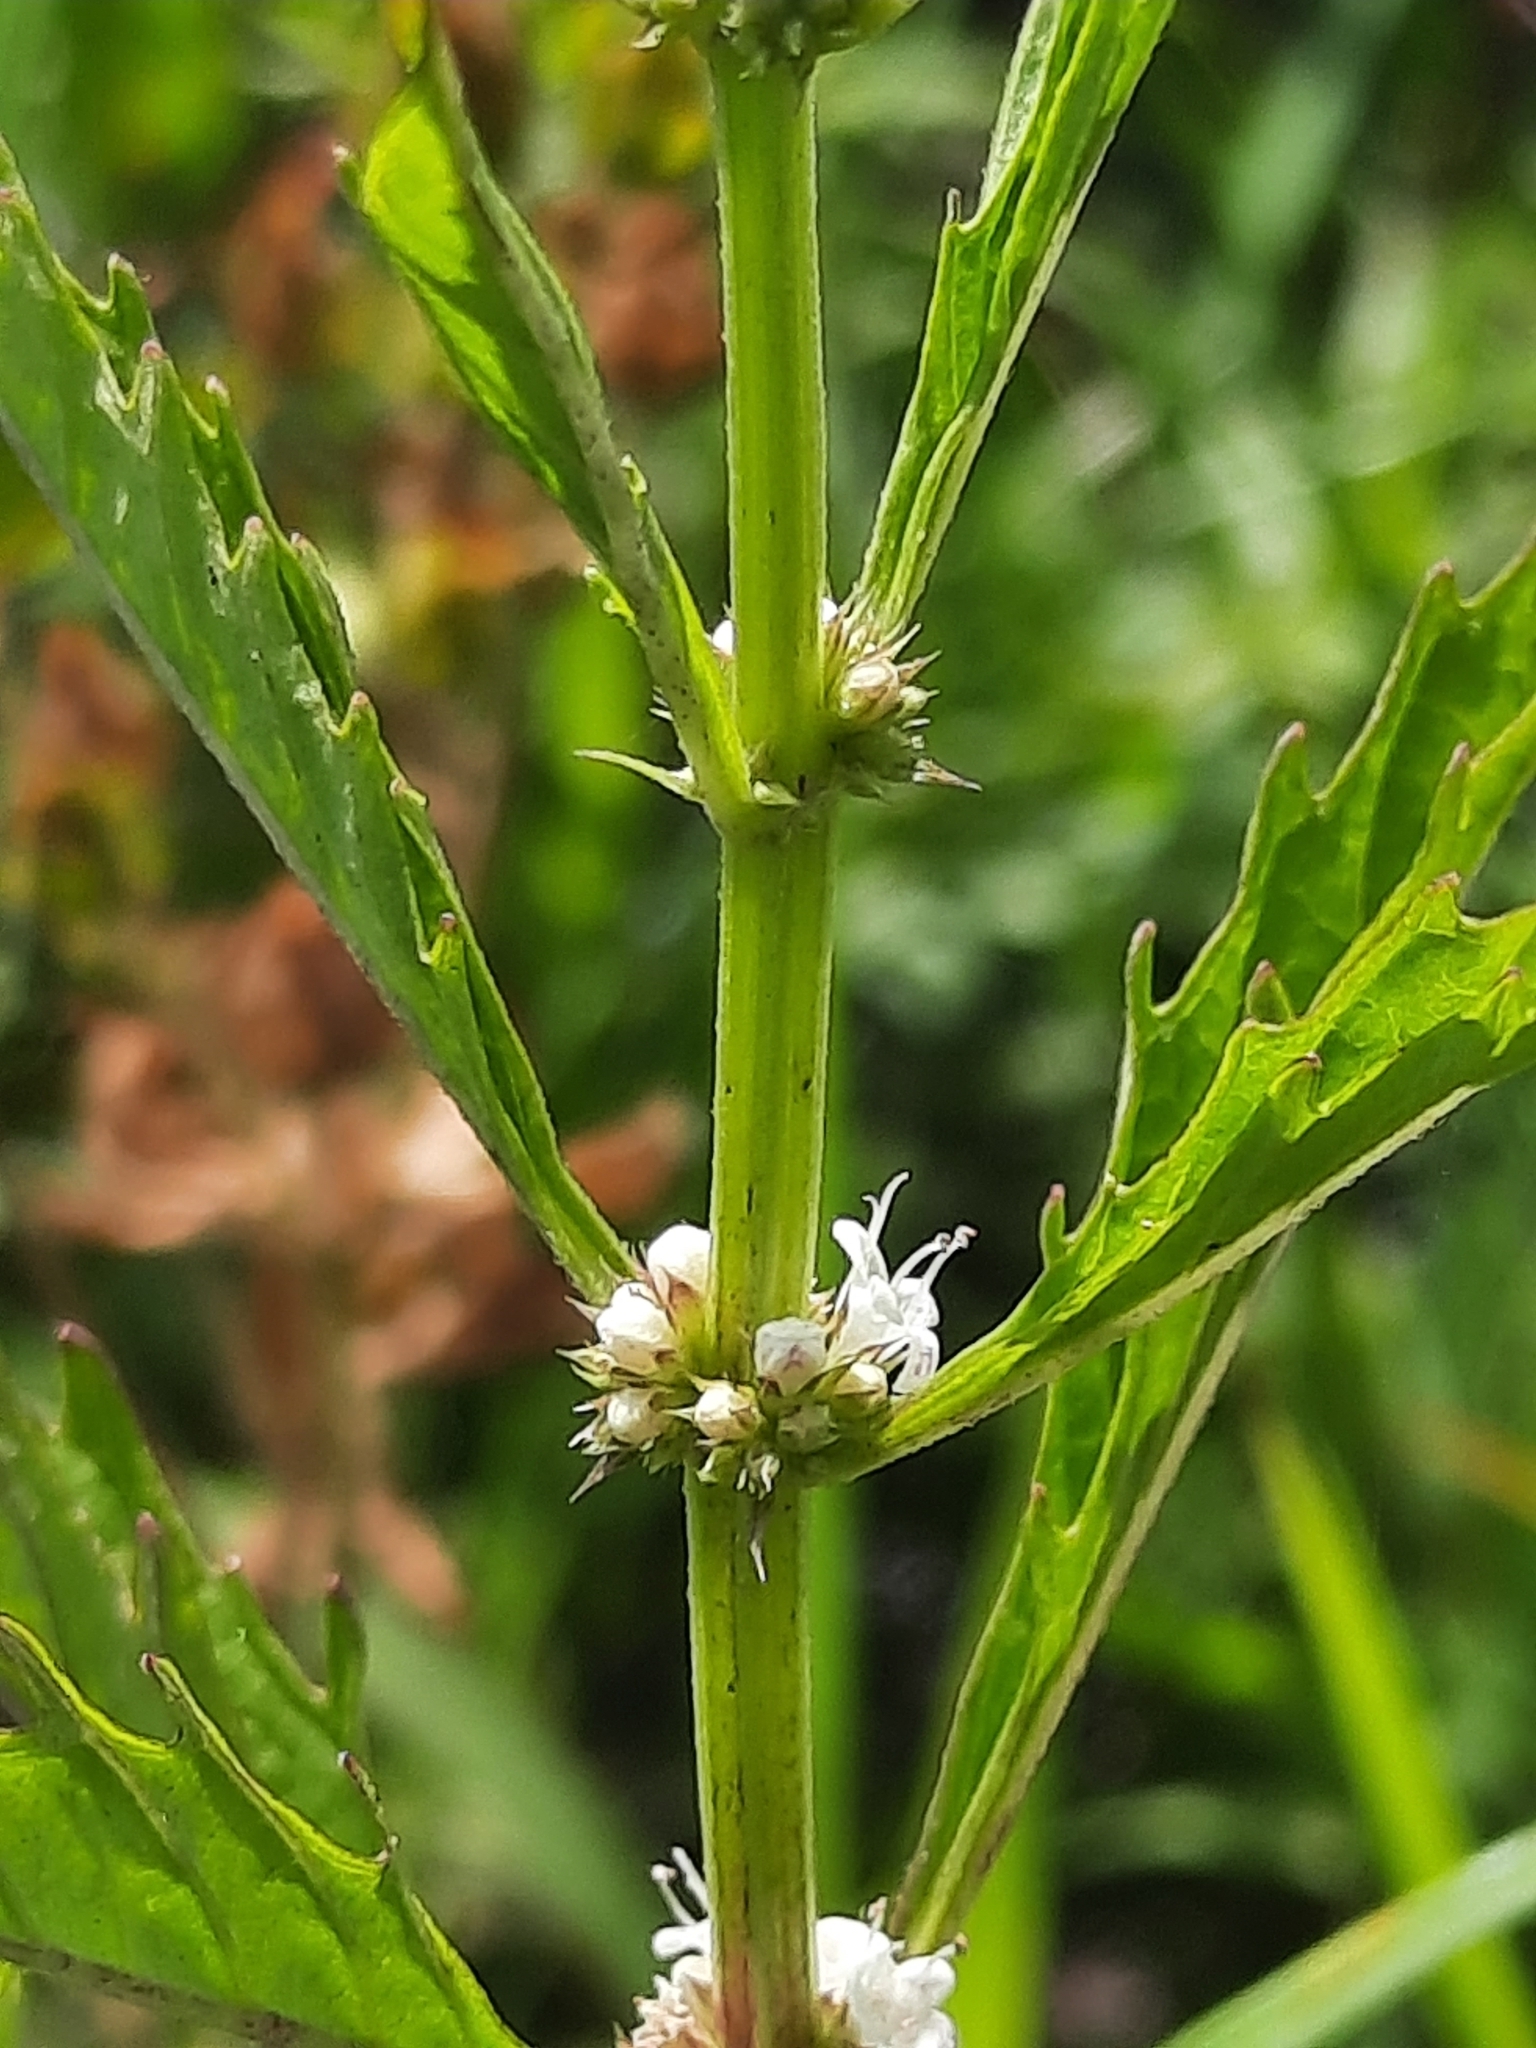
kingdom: Plantae
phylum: Tracheophyta
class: Magnoliopsida
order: Lamiales
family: Lamiaceae
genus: Lycopus
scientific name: Lycopus americanus
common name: American bugleweed
